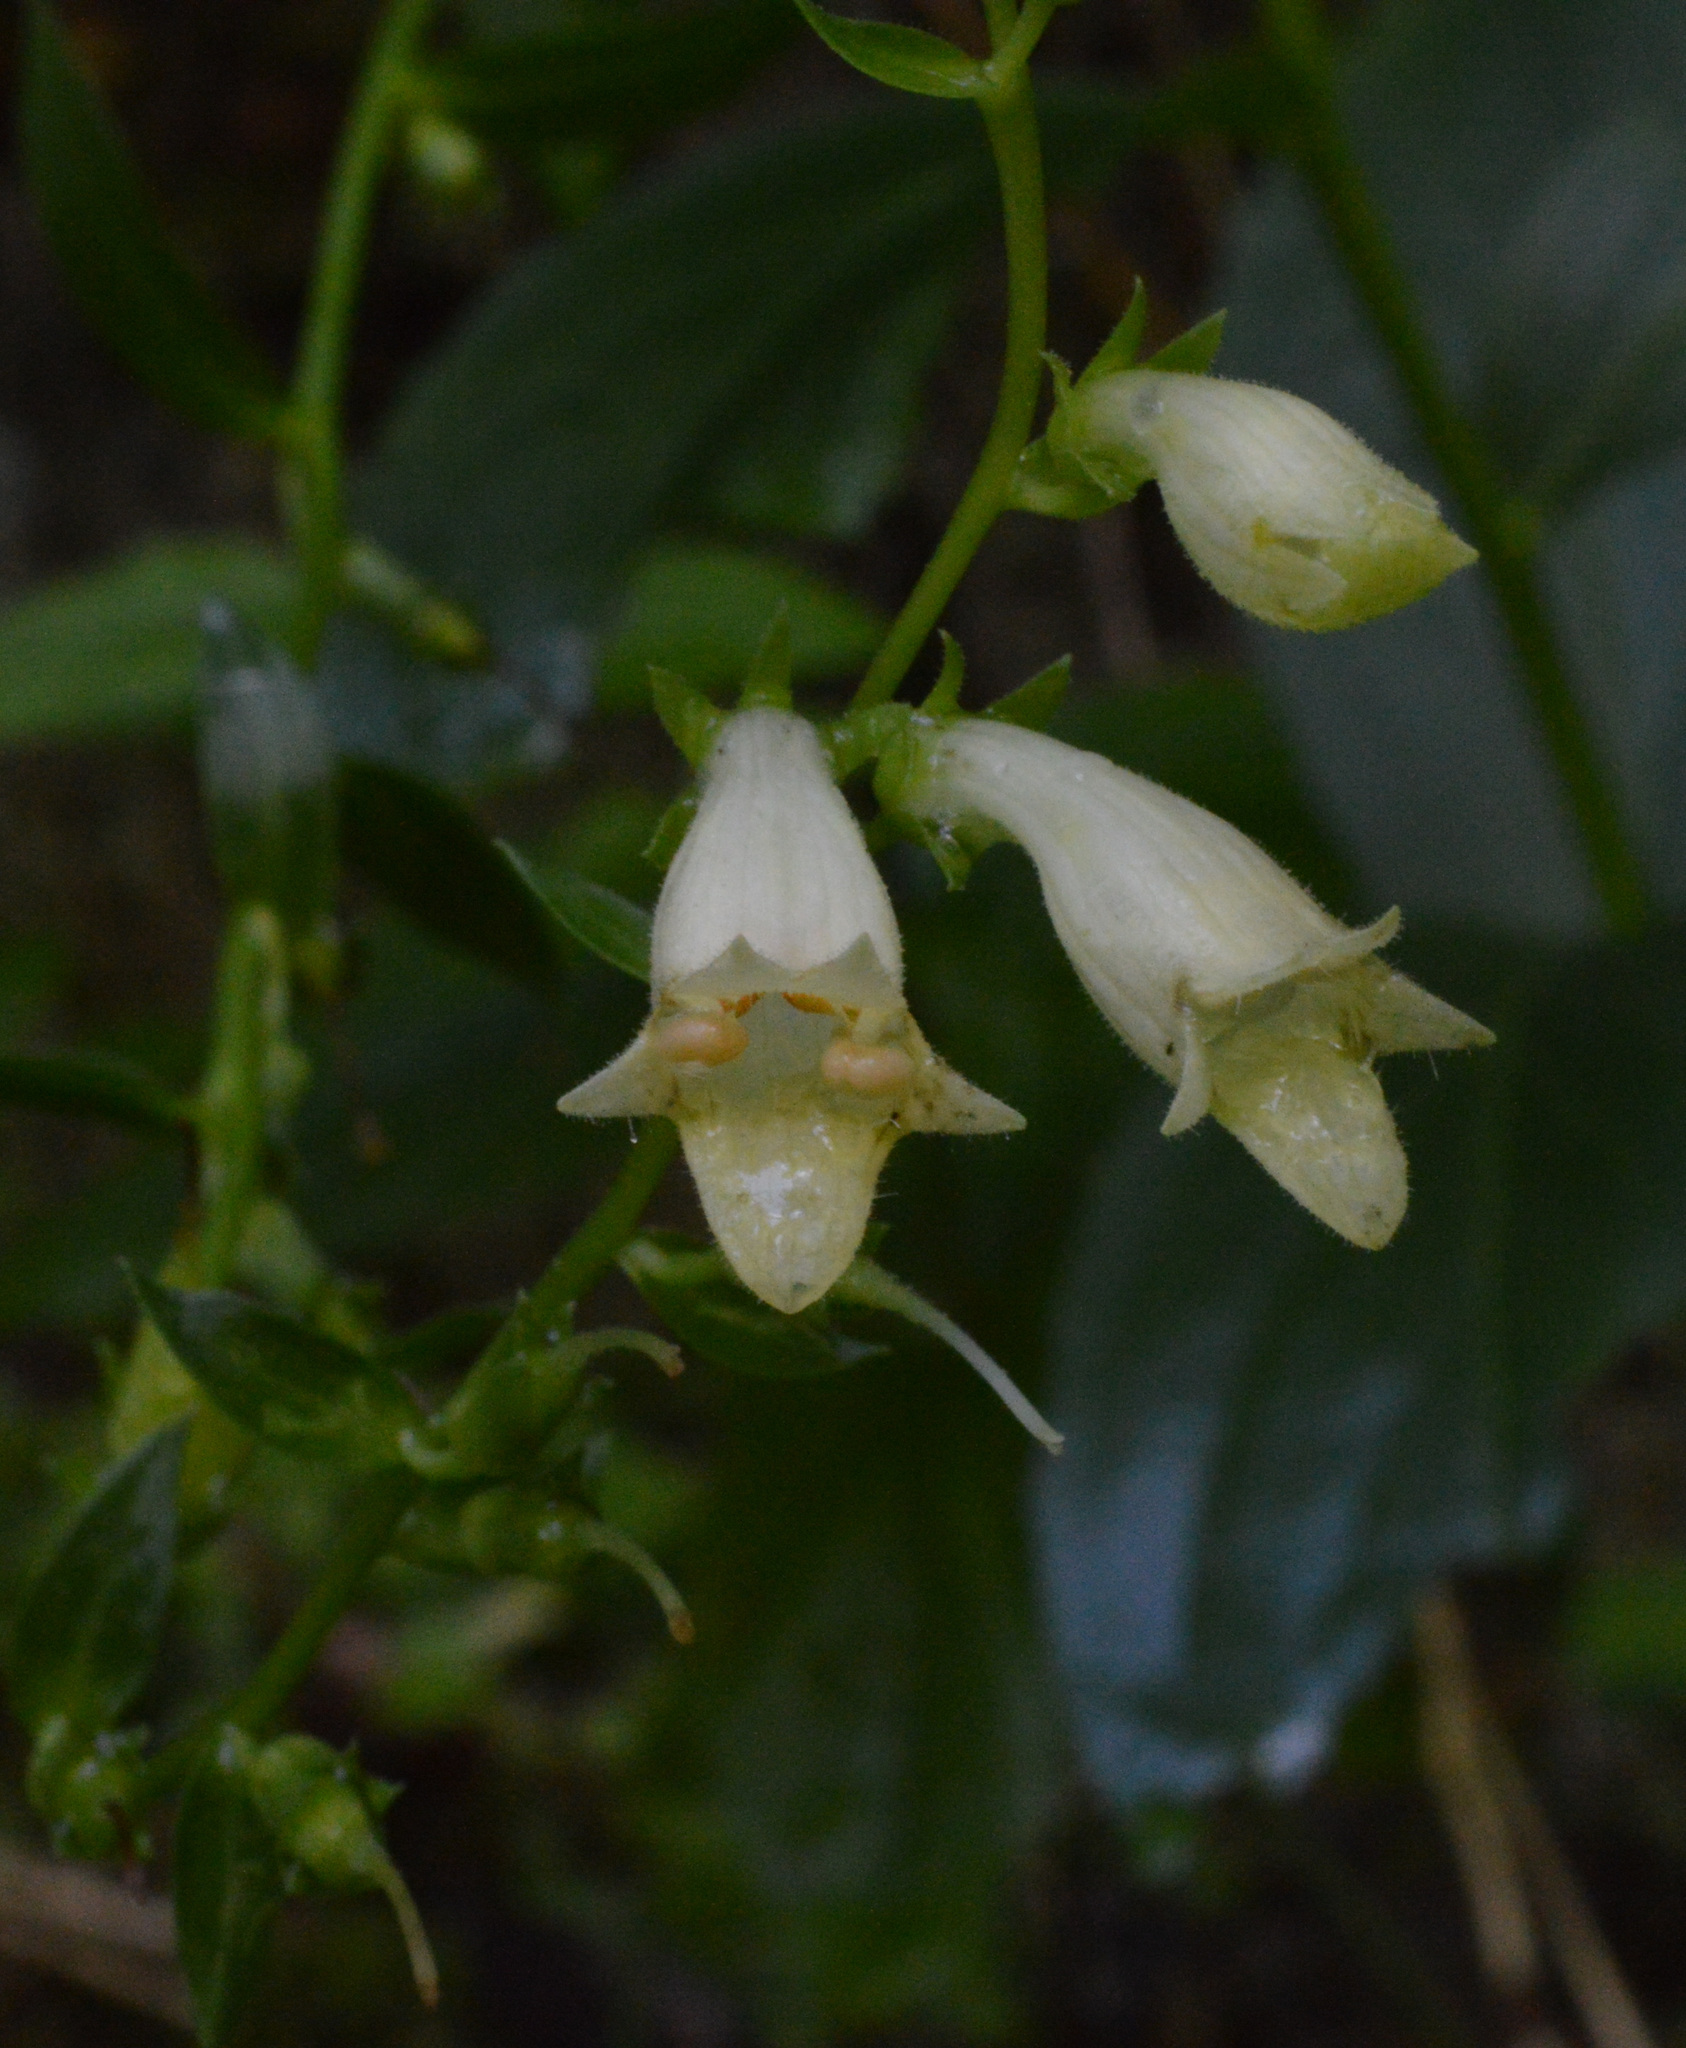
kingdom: Plantae
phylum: Tracheophyta
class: Magnoliopsida
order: Lamiales
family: Plantaginaceae
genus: Digitalis
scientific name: Digitalis lutea
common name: Straw foxglove
